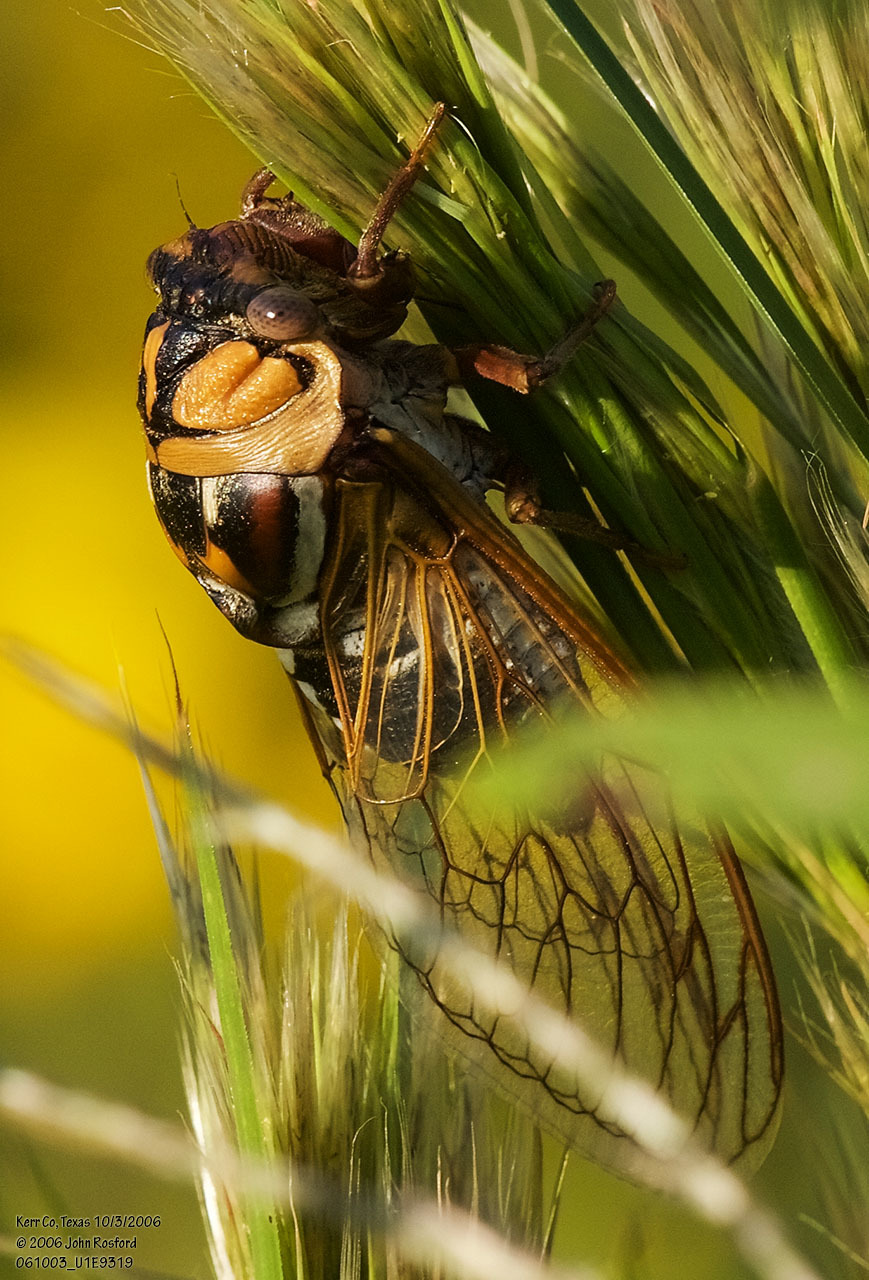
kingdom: Animalia
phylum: Arthropoda
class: Insecta
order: Hemiptera
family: Cicadidae
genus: Megatibicen
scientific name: Megatibicen dorsatus
